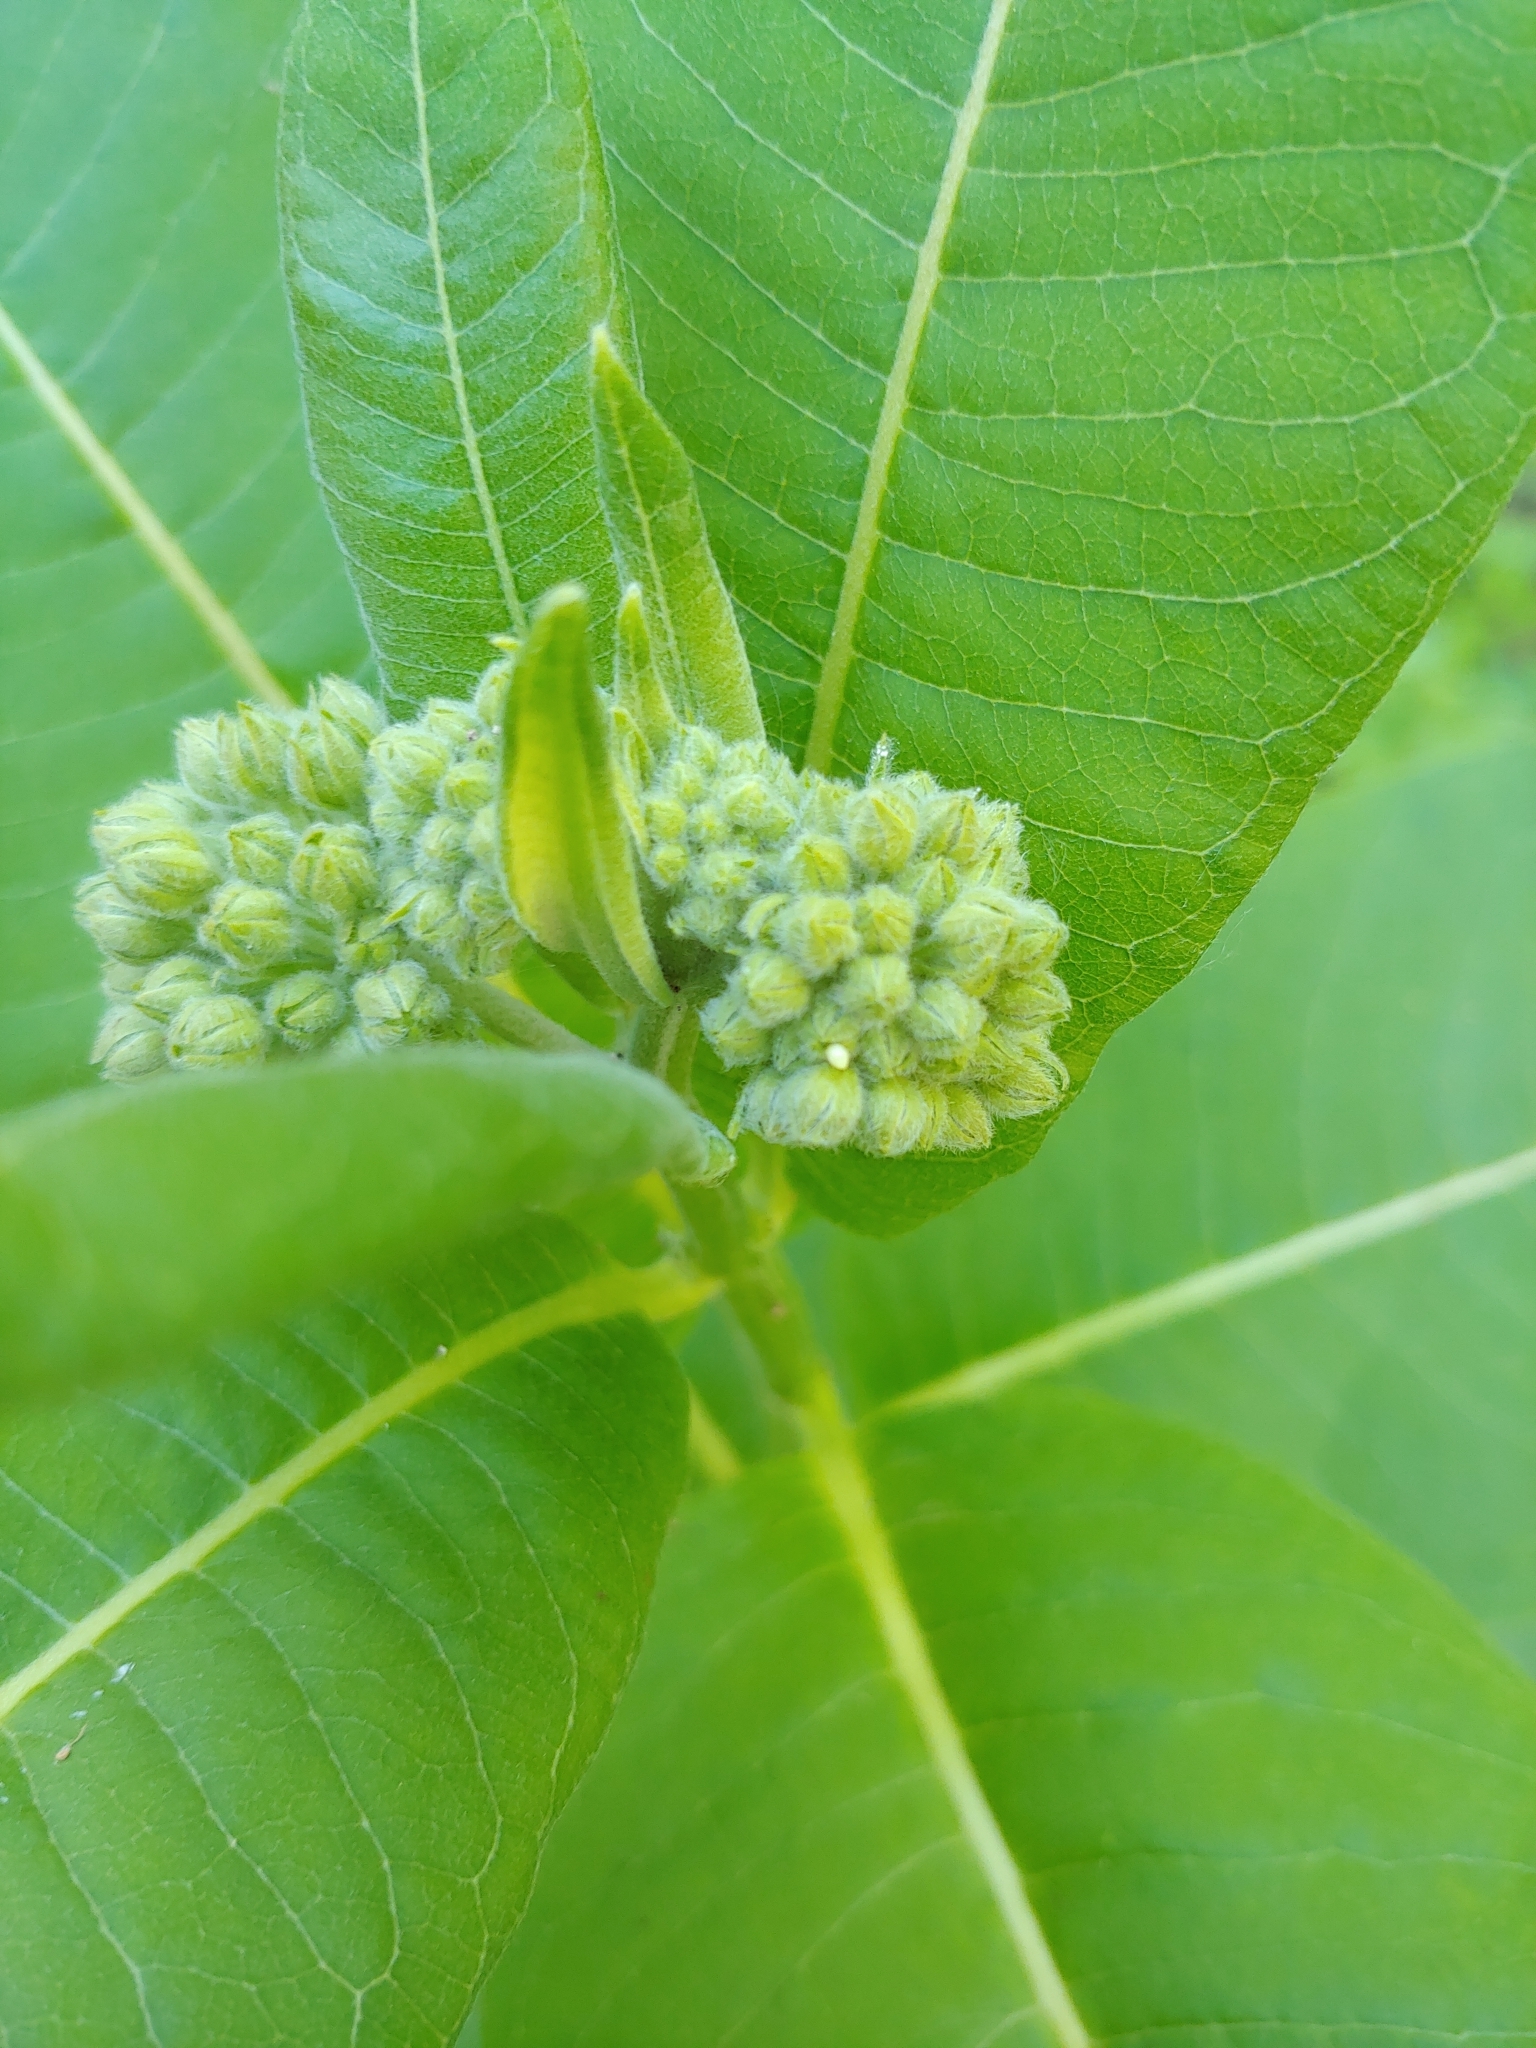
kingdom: Animalia
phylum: Arthropoda
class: Insecta
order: Lepidoptera
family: Nymphalidae
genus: Danaus
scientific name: Danaus plexippus
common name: Monarch
